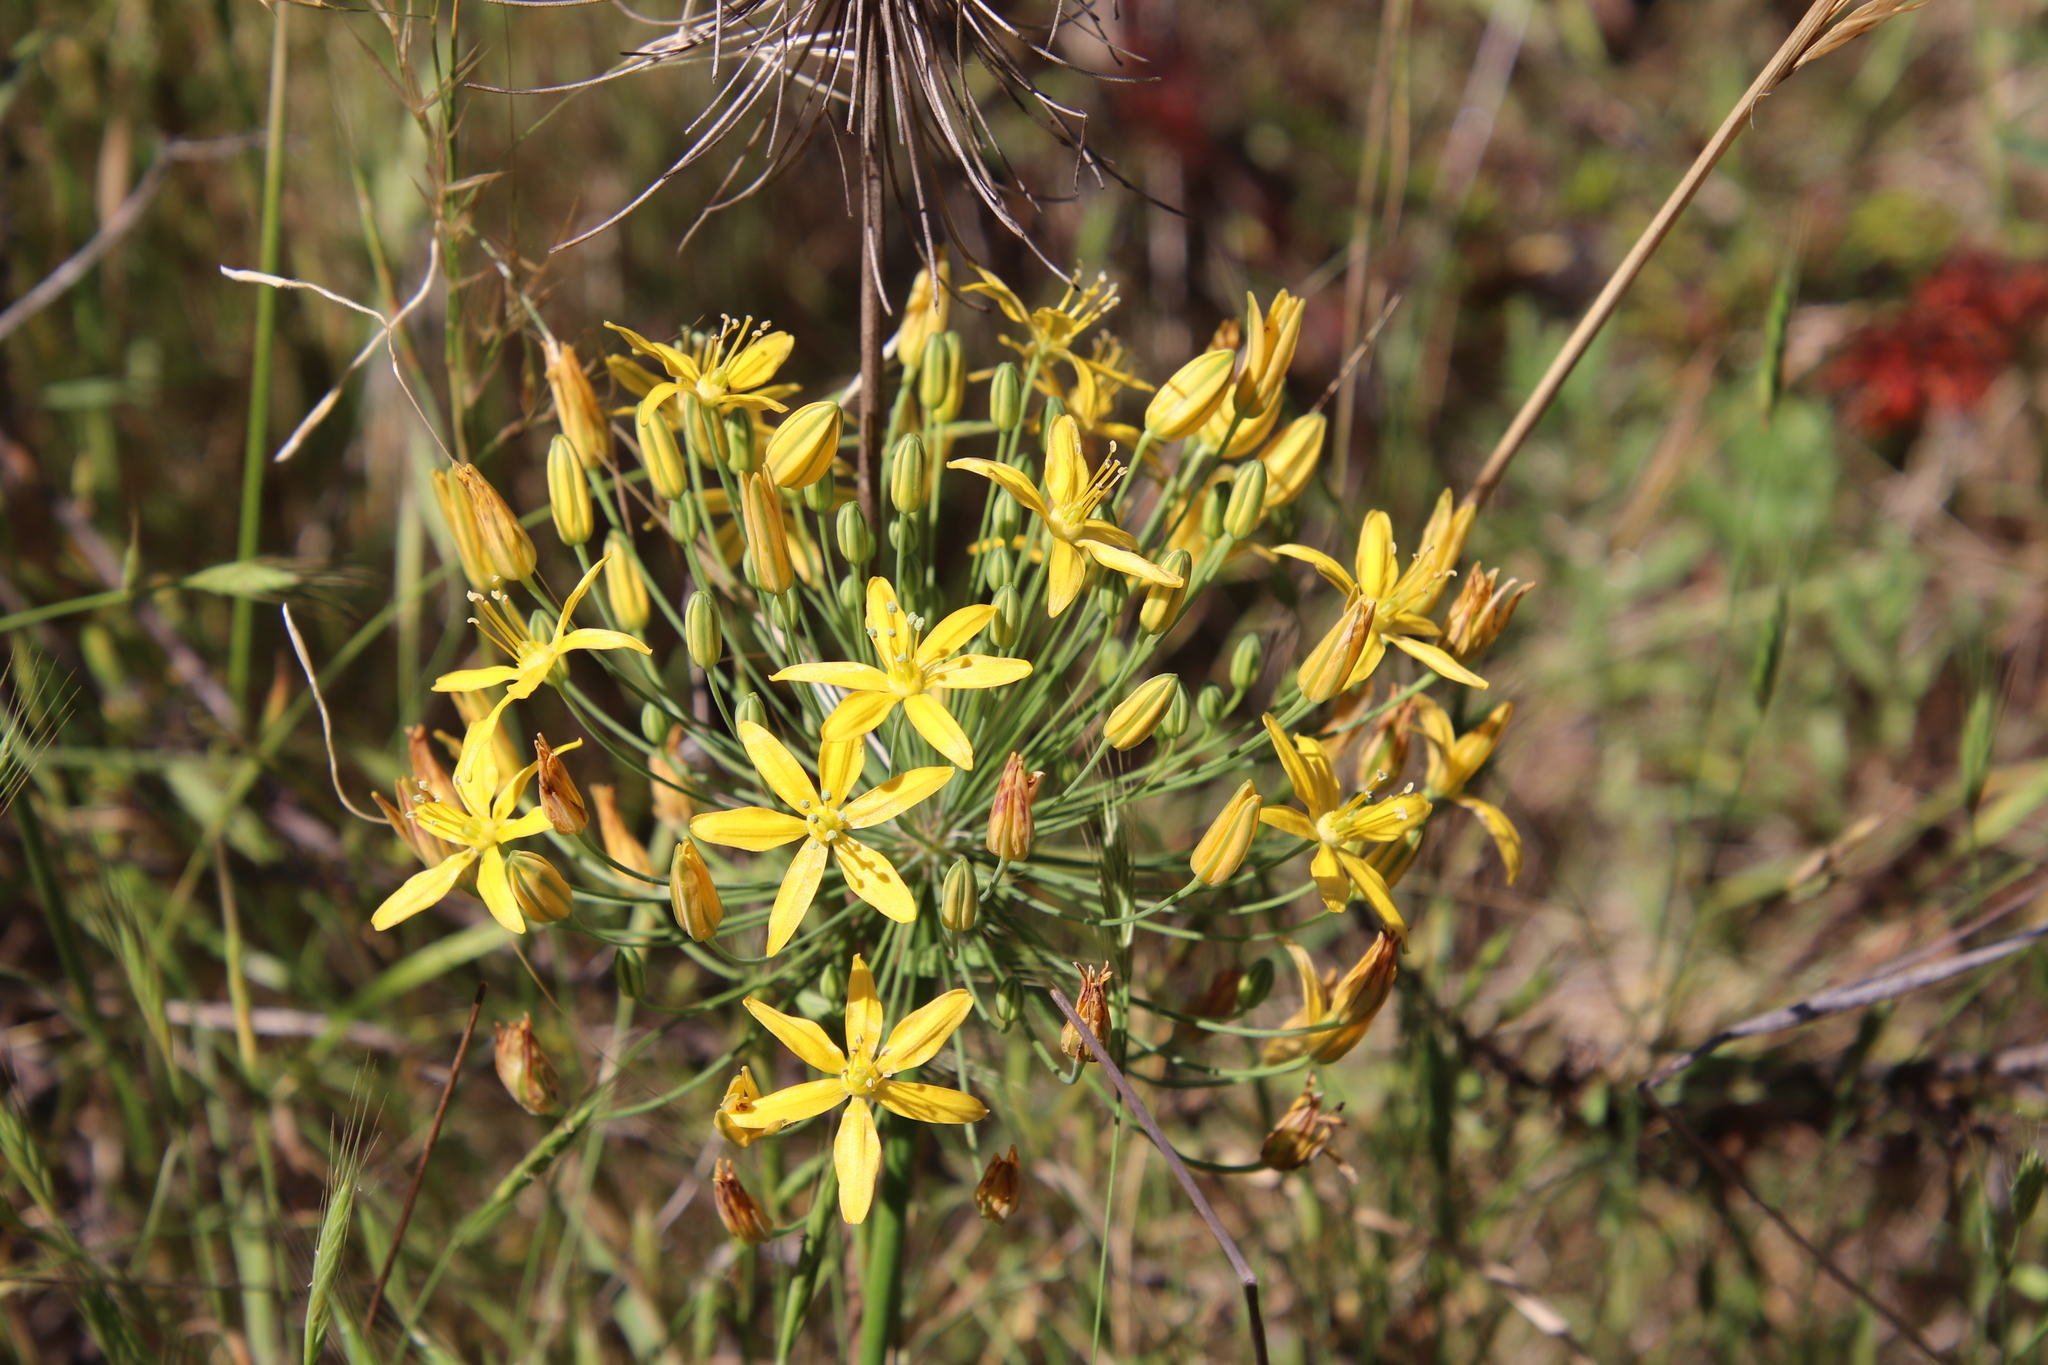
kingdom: Plantae
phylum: Tracheophyta
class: Liliopsida
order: Asparagales
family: Asparagaceae
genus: Bloomeria
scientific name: Bloomeria crocea
